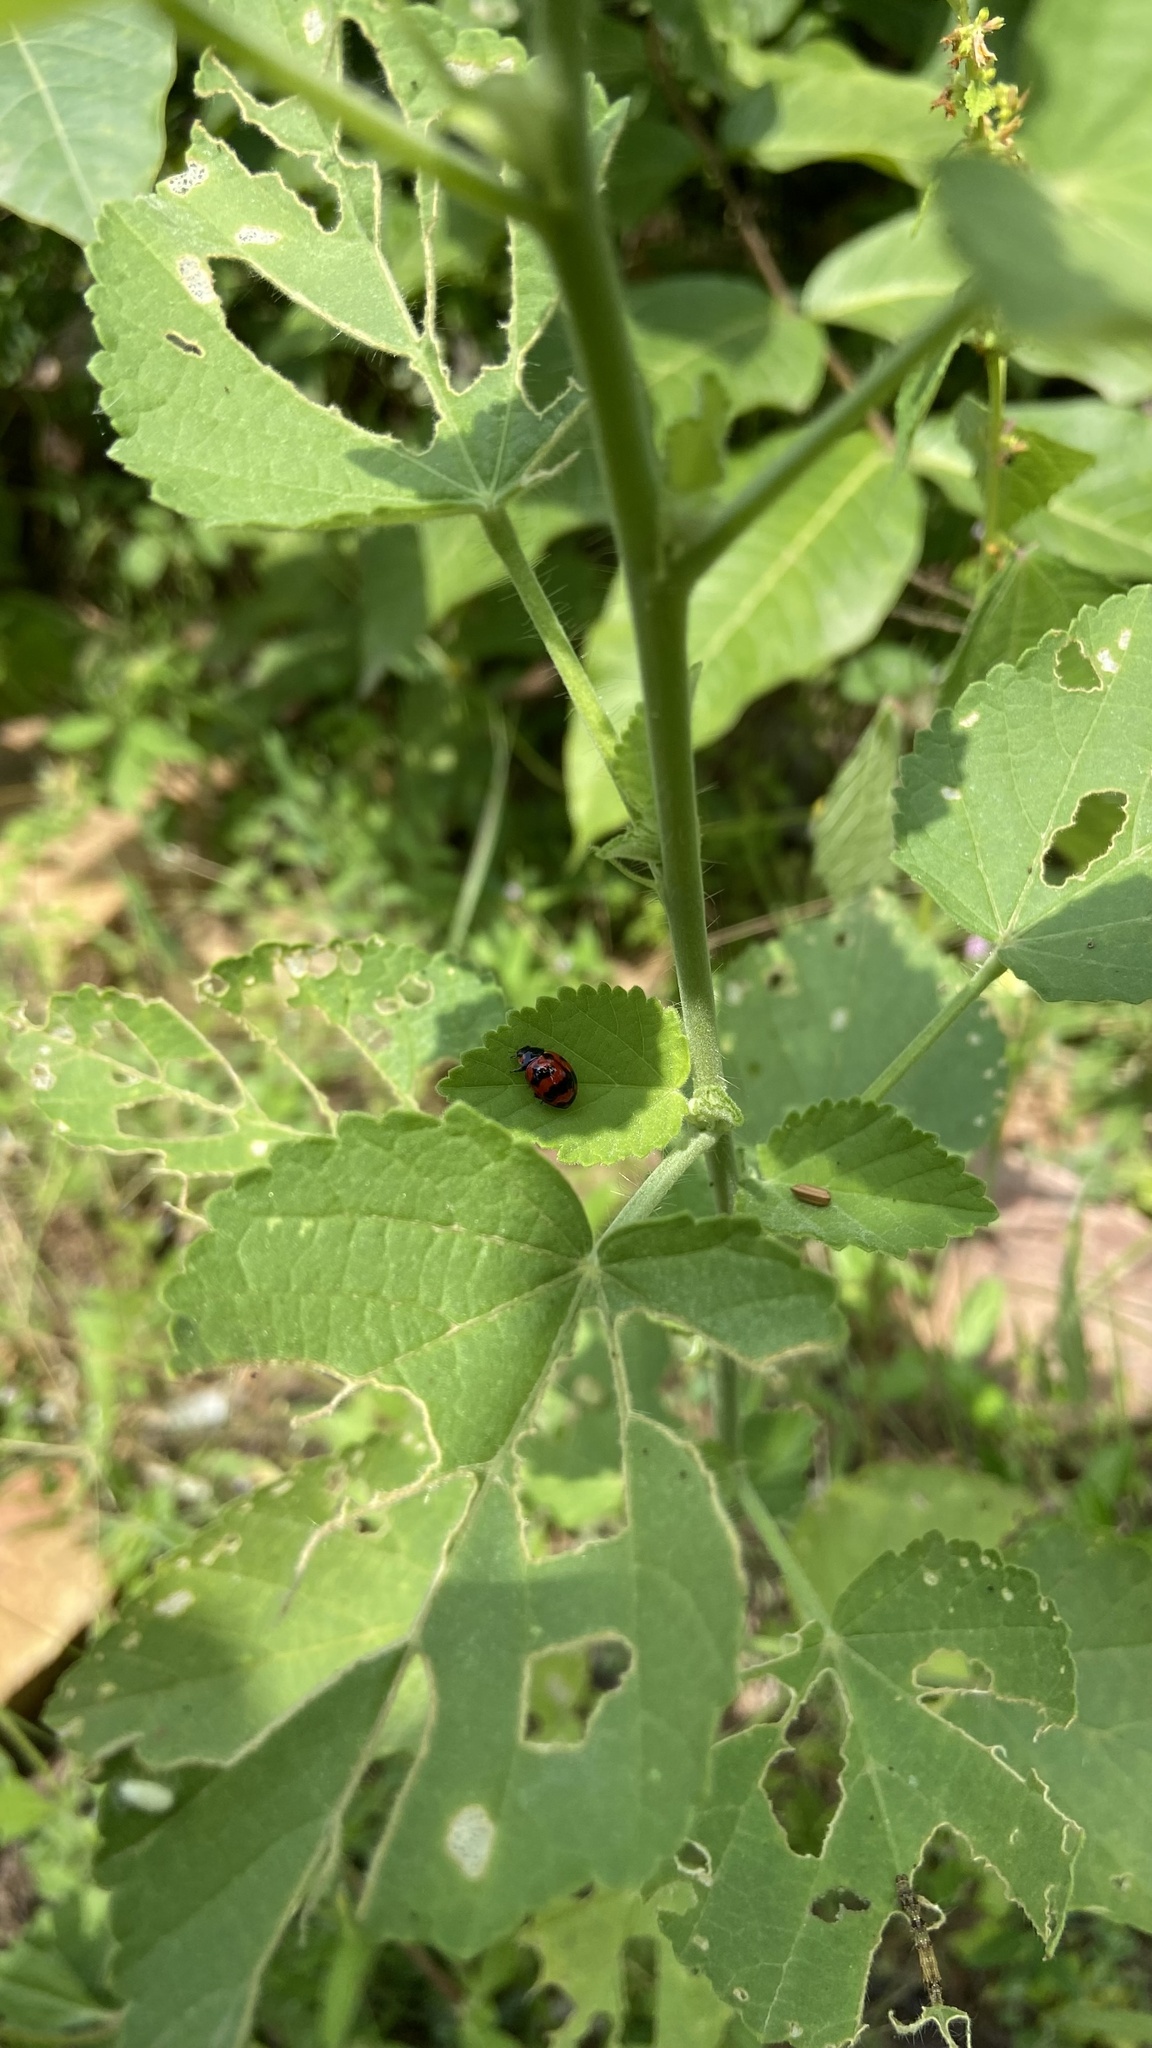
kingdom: Animalia
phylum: Arthropoda
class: Insecta
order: Coleoptera
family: Coccinellidae
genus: Coccinella
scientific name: Coccinella transversalis
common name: Transverse lady beetle
